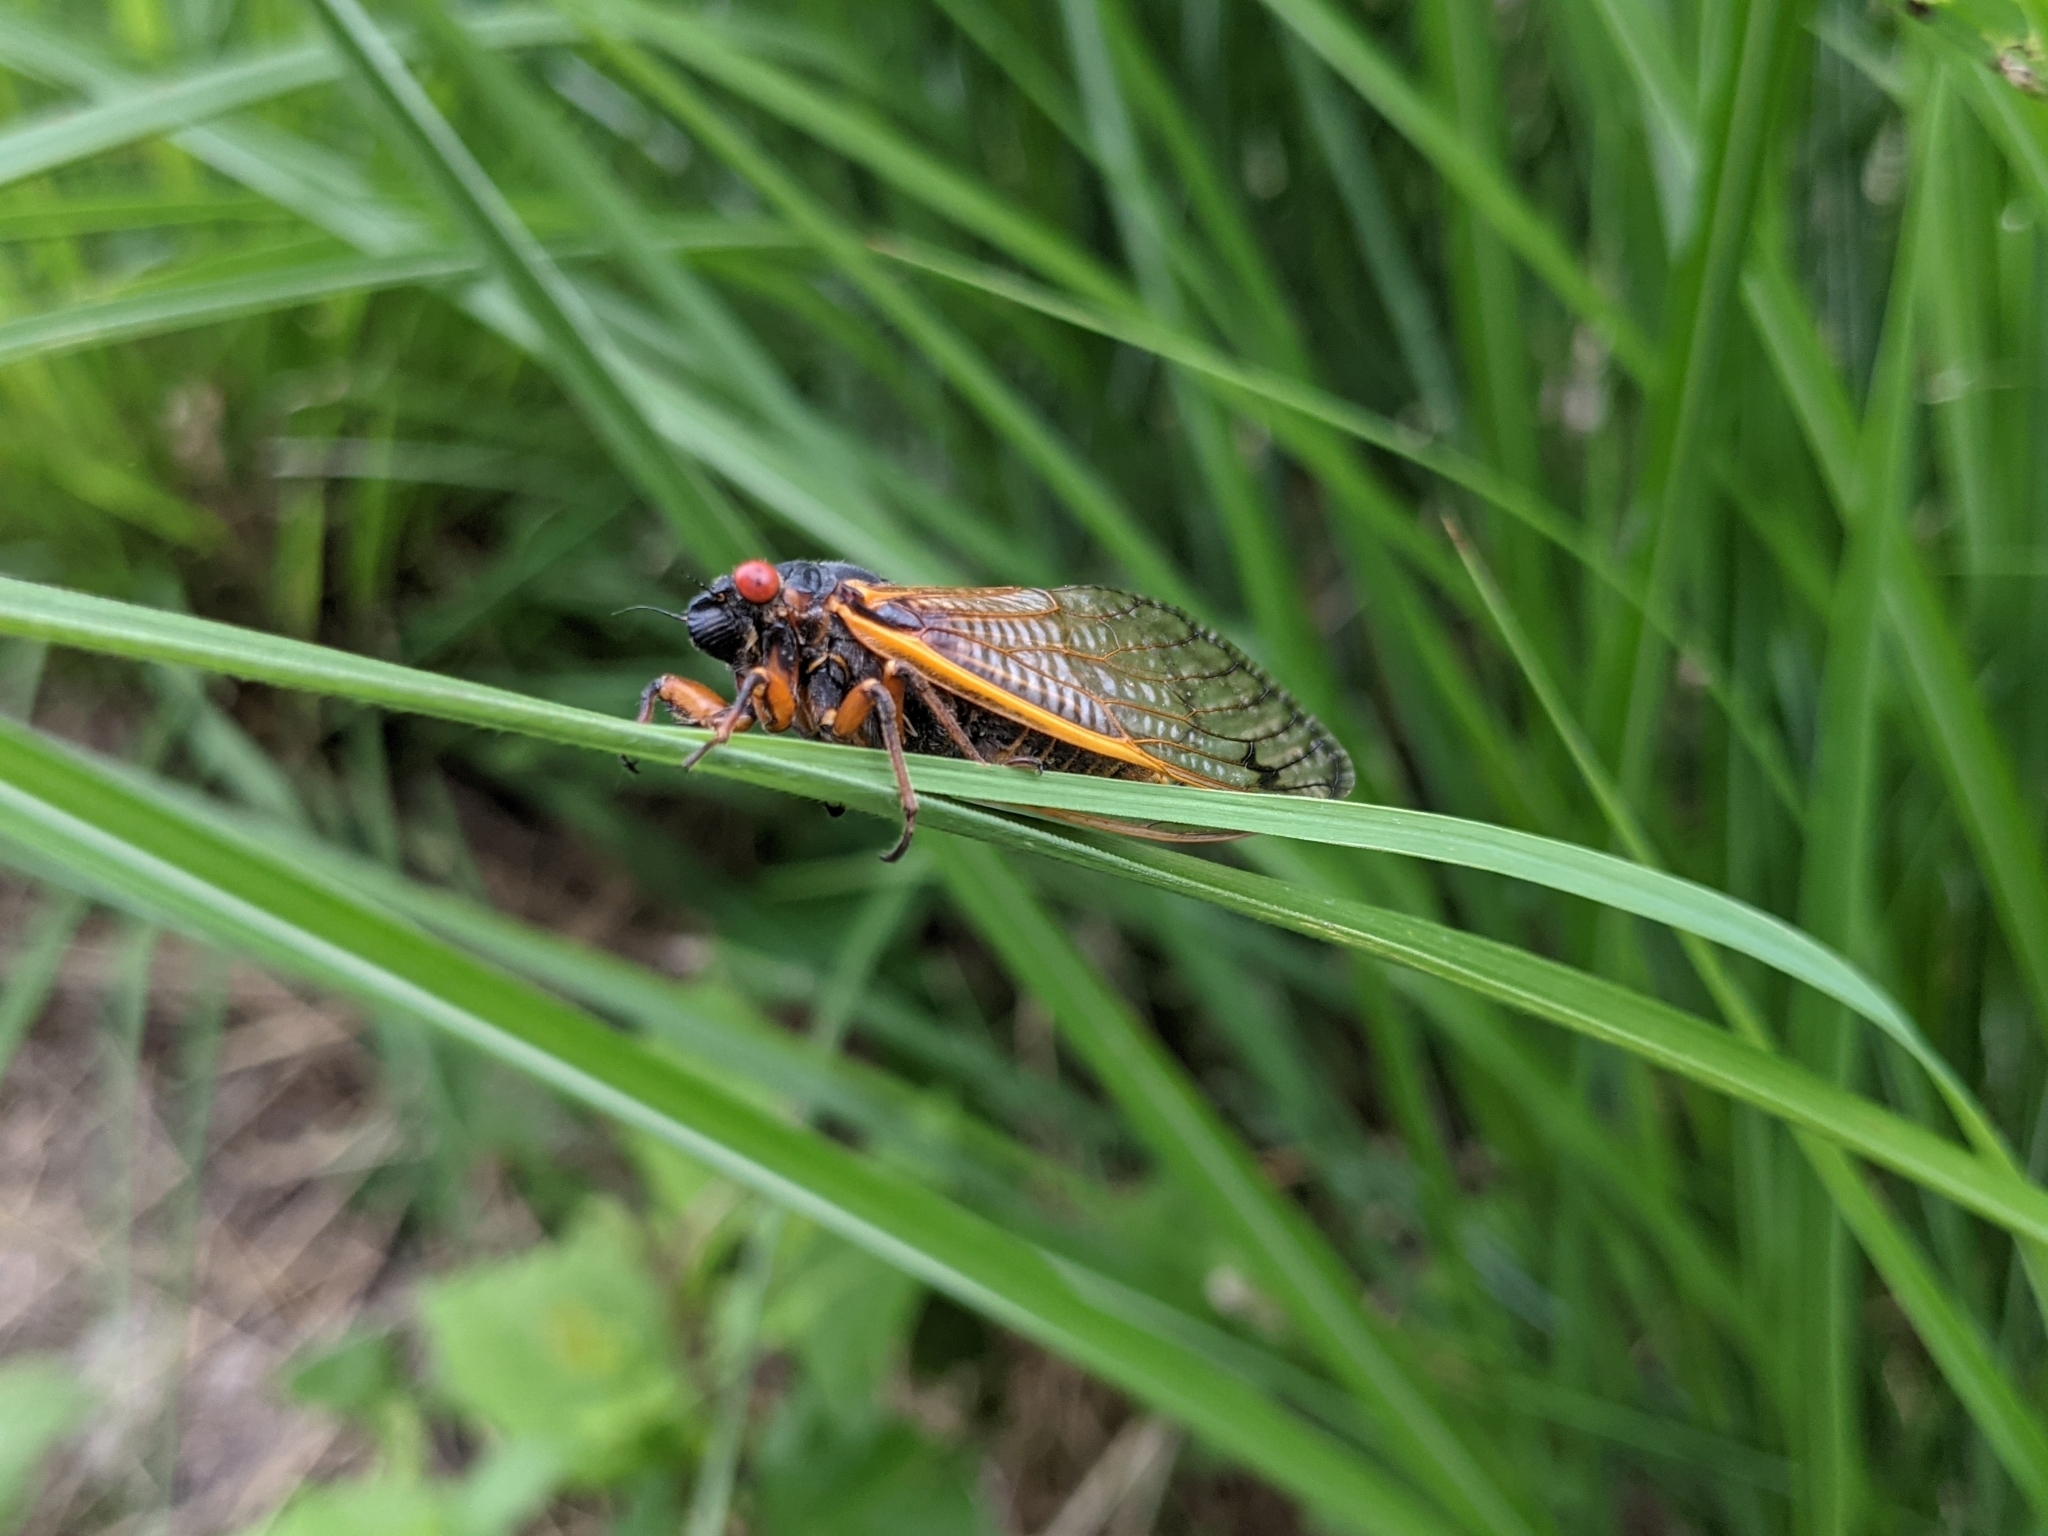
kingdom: Animalia
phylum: Arthropoda
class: Insecta
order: Hemiptera
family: Cicadidae
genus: Magicicada
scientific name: Magicicada septendecim
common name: Periodical cicada
